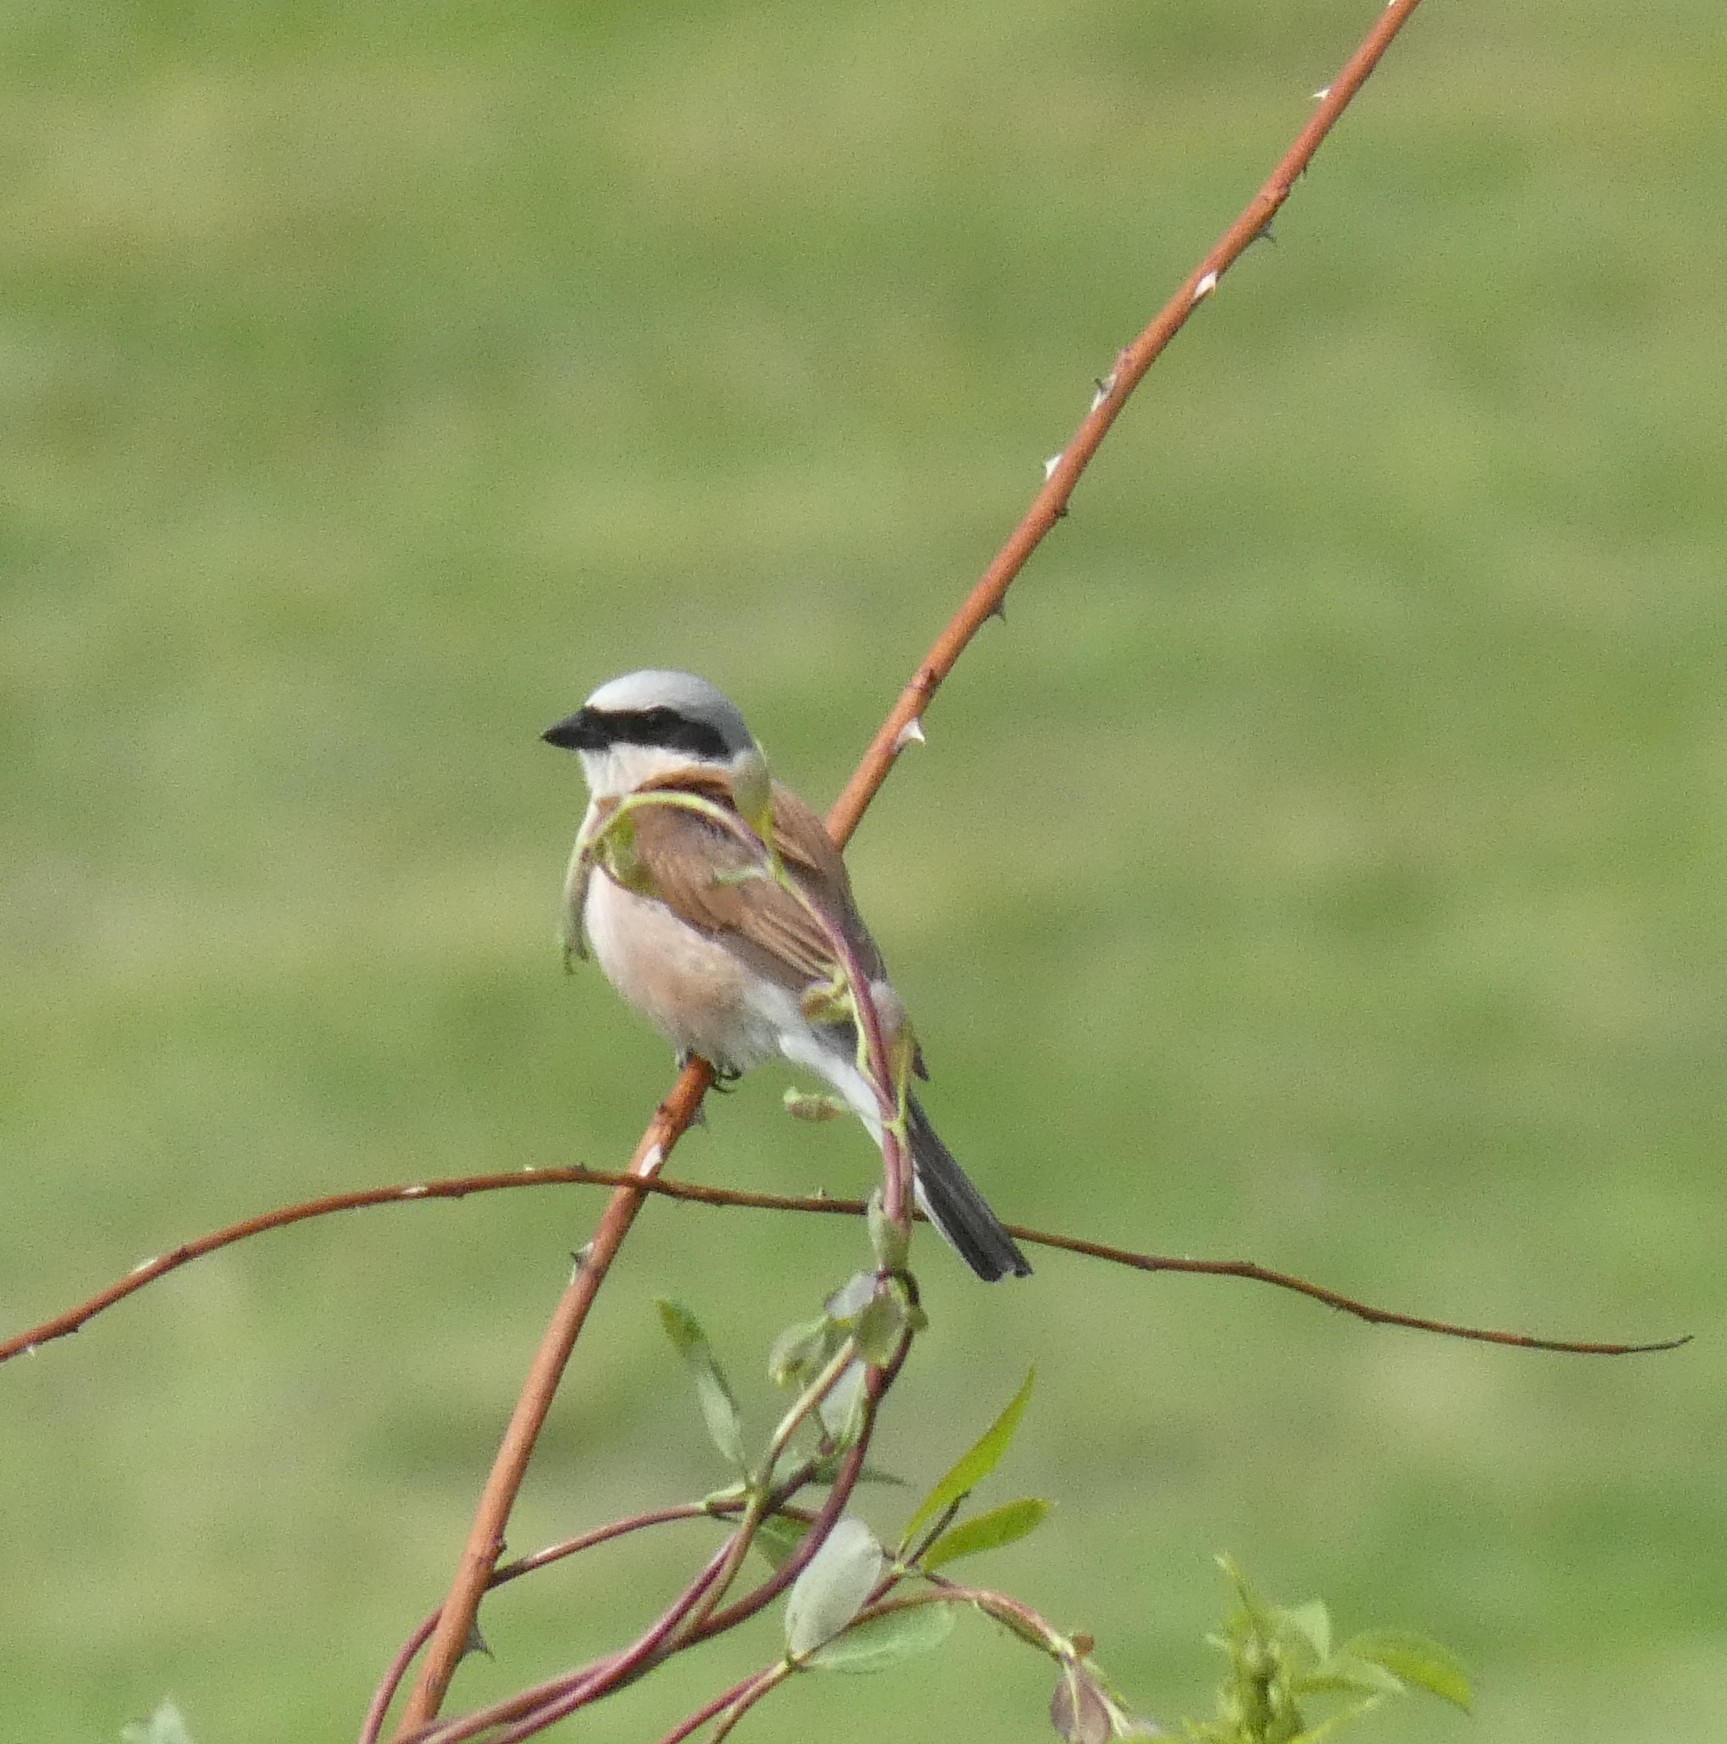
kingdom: Animalia
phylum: Chordata
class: Aves
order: Passeriformes
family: Laniidae
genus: Lanius
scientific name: Lanius collurio
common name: Red-backed shrike
